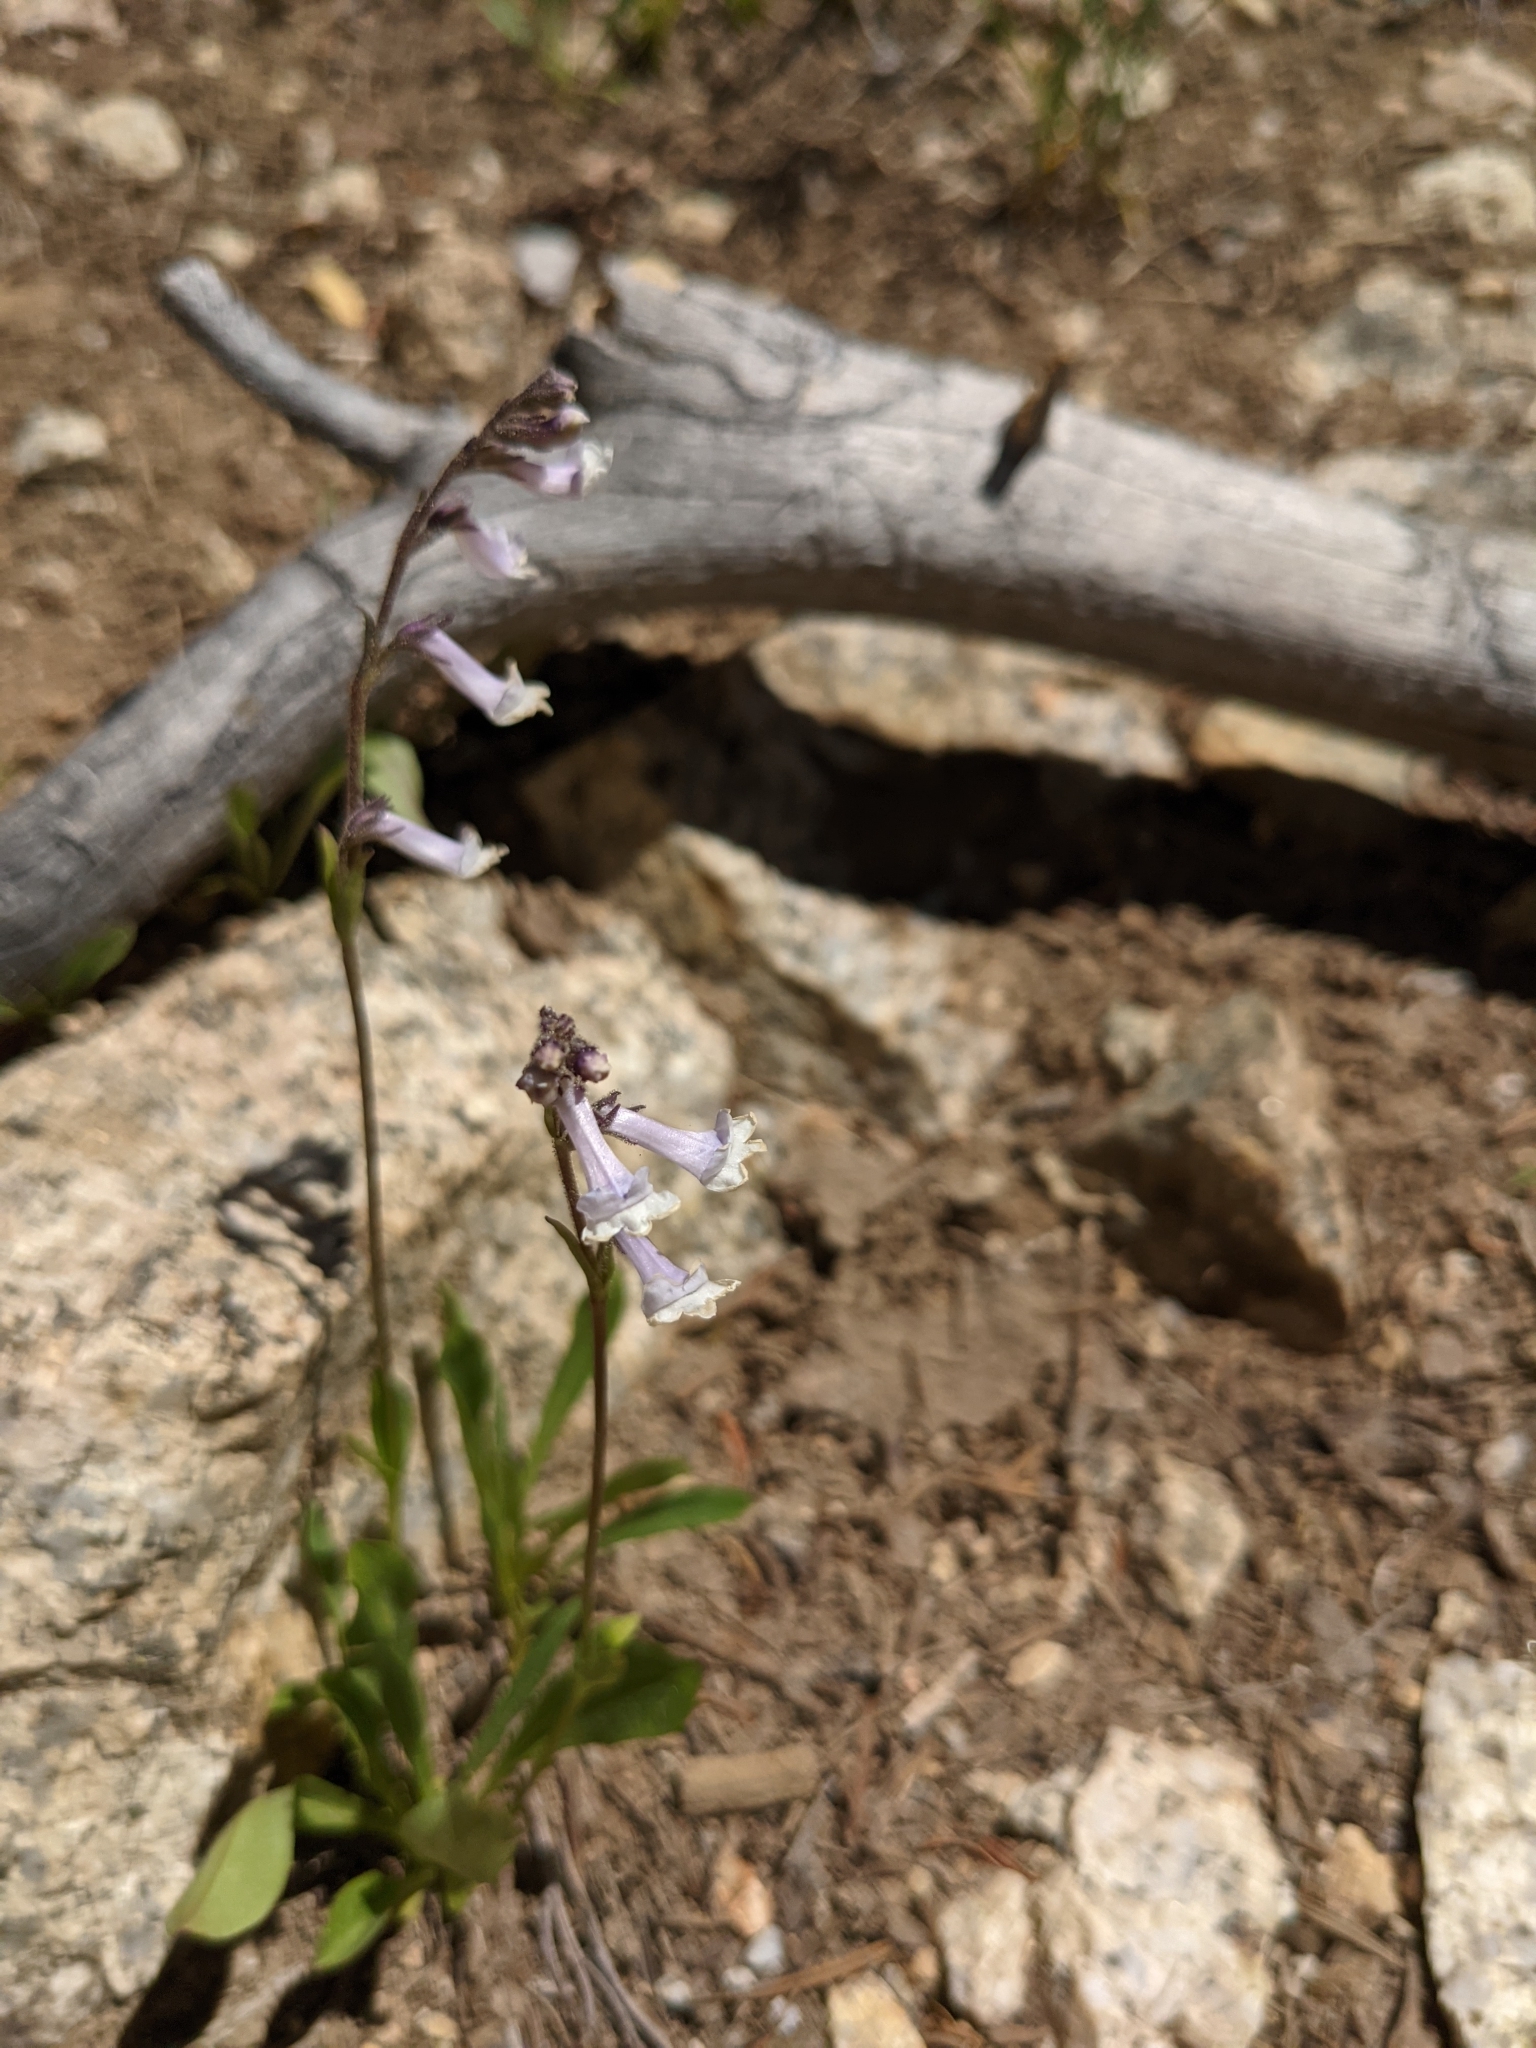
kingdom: Plantae
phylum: Tracheophyta
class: Magnoliopsida
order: Lamiales
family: Plantaginaceae
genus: Chionophila
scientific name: Chionophila tweedyi
